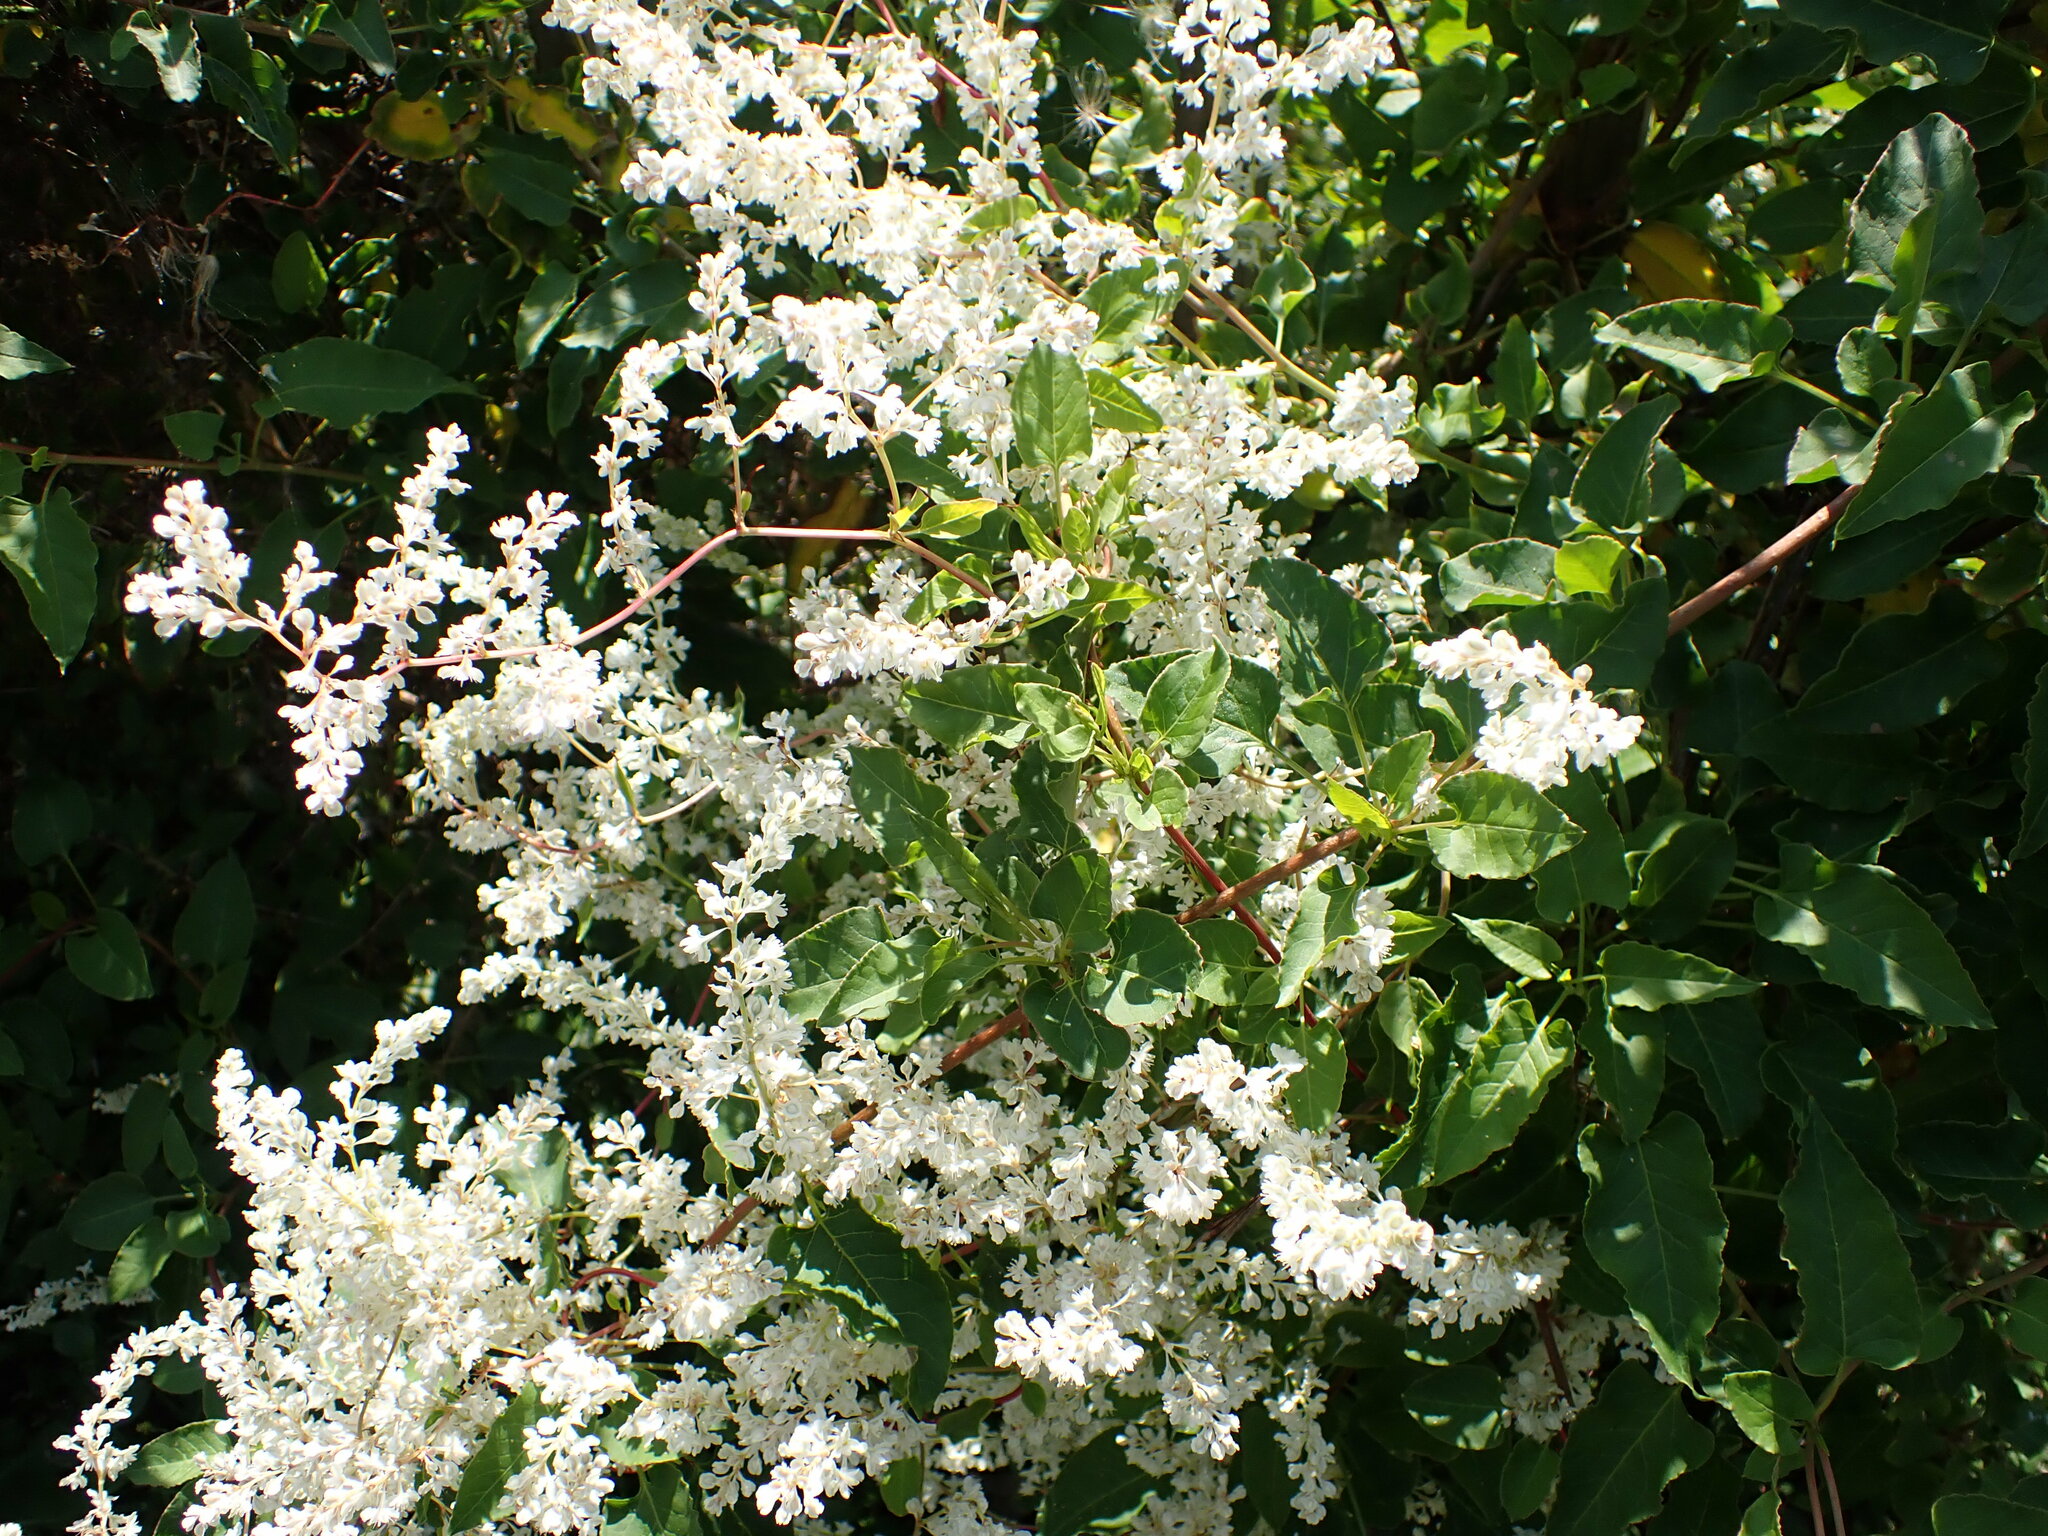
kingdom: Plantae
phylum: Tracheophyta
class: Magnoliopsida
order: Caryophyllales
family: Polygonaceae
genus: Fallopia
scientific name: Fallopia baldschuanica
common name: Russian-vine
